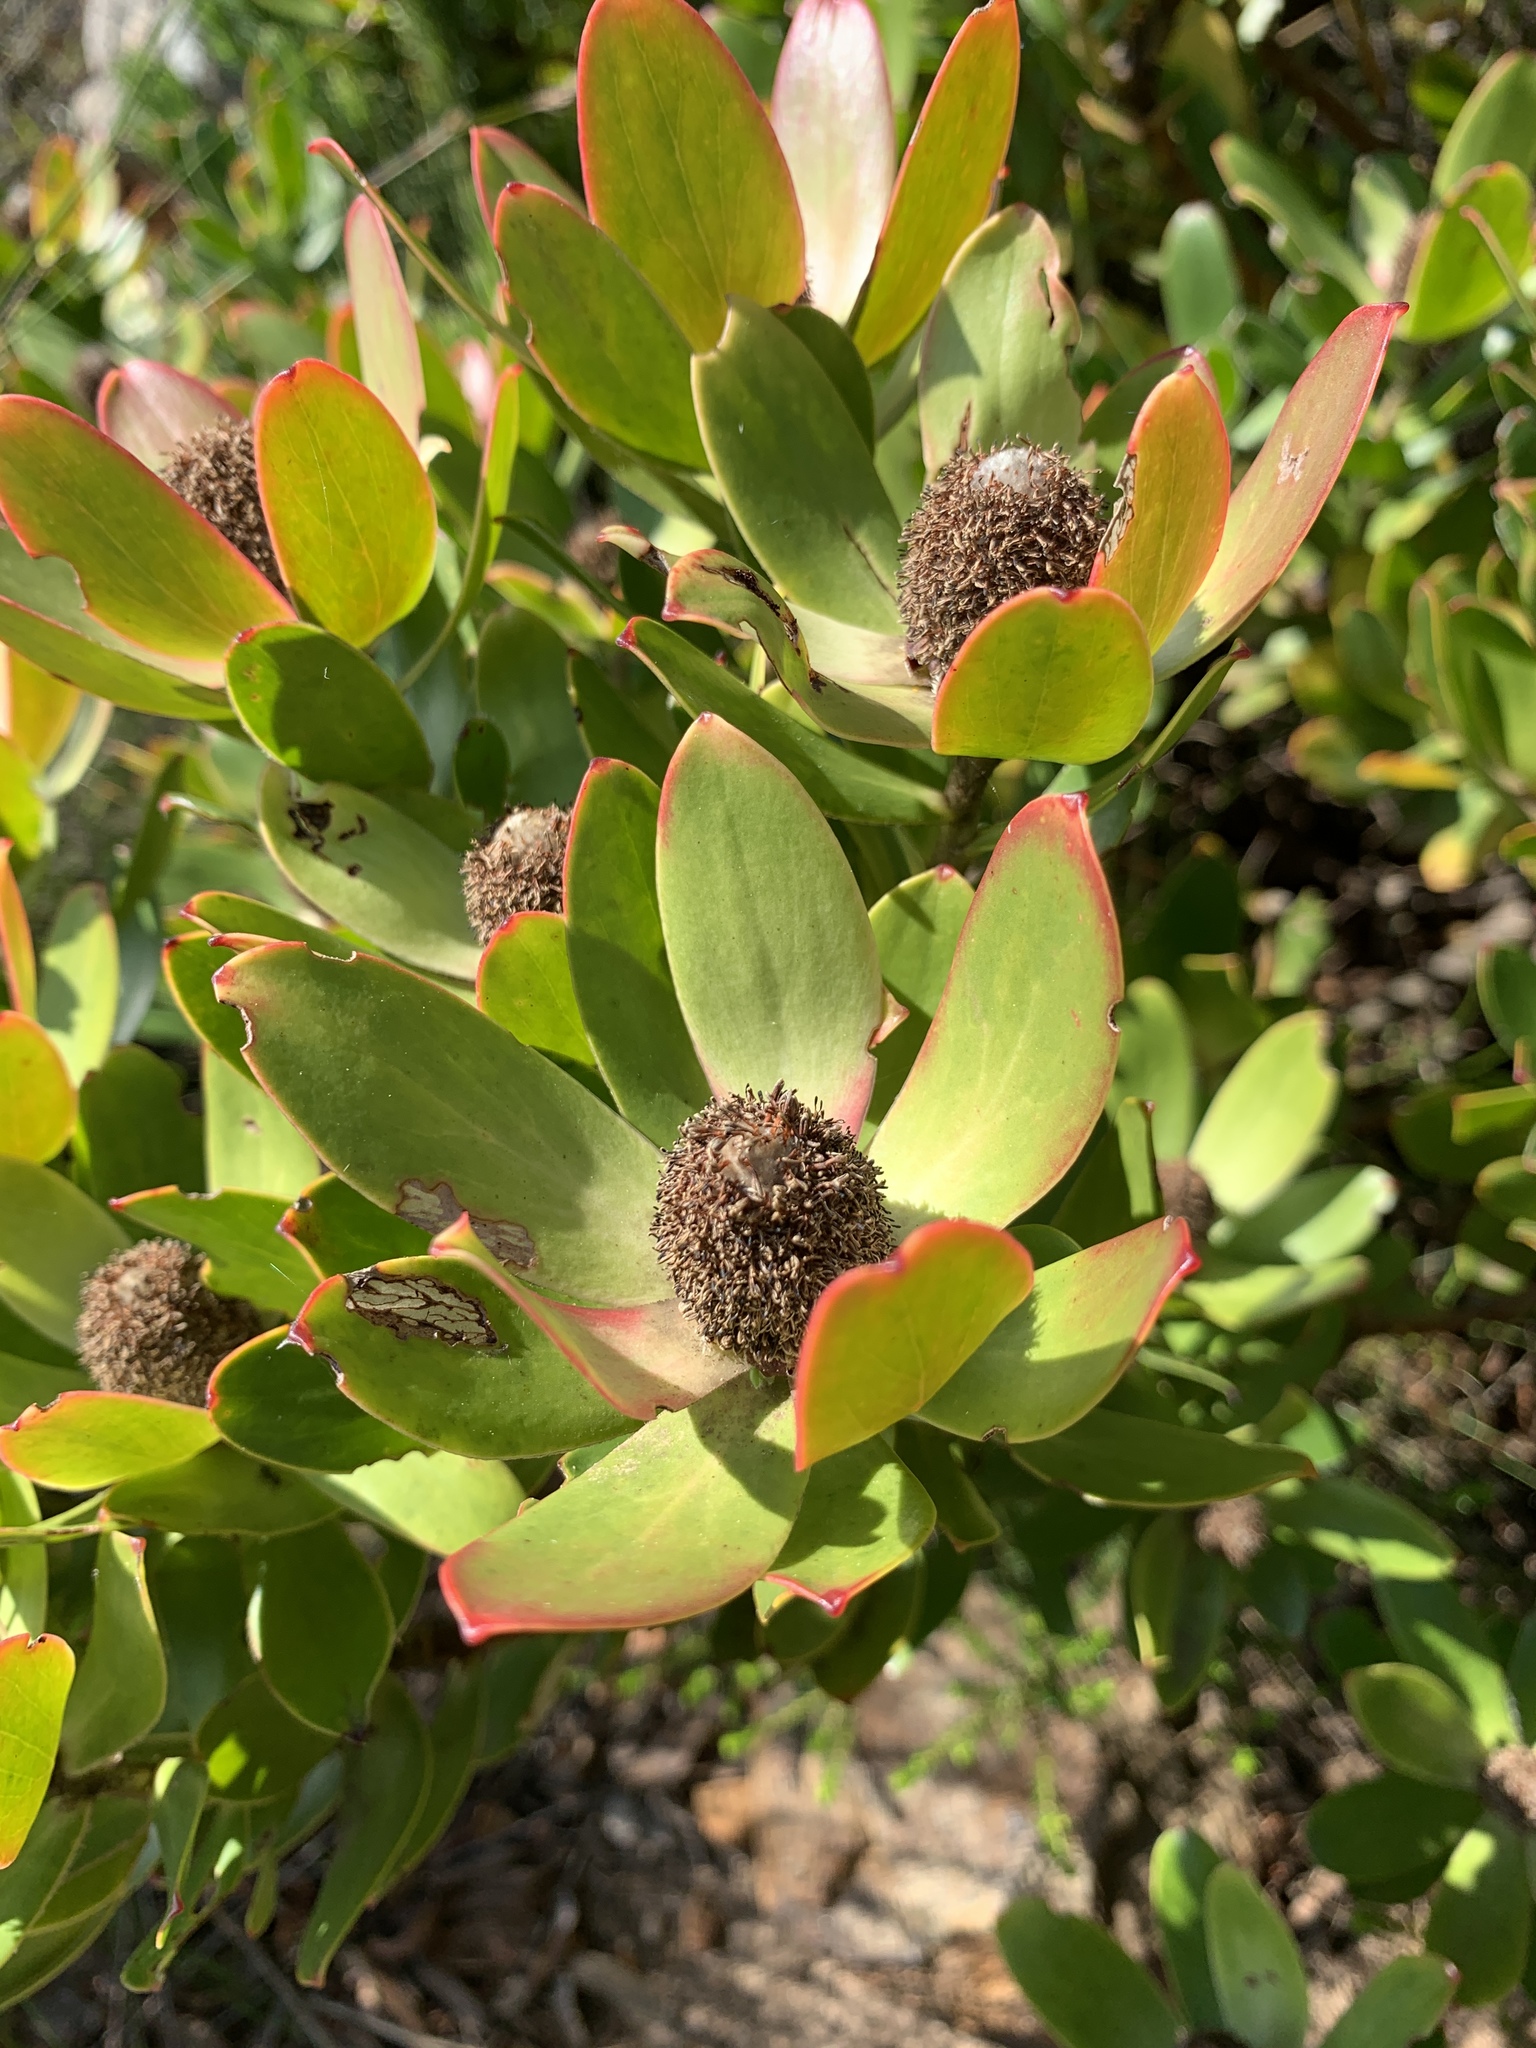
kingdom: Plantae
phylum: Tracheophyta
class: Magnoliopsida
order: Proteales
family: Proteaceae
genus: Leucadendron
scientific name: Leucadendron strobilinum
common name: Mountain rose
